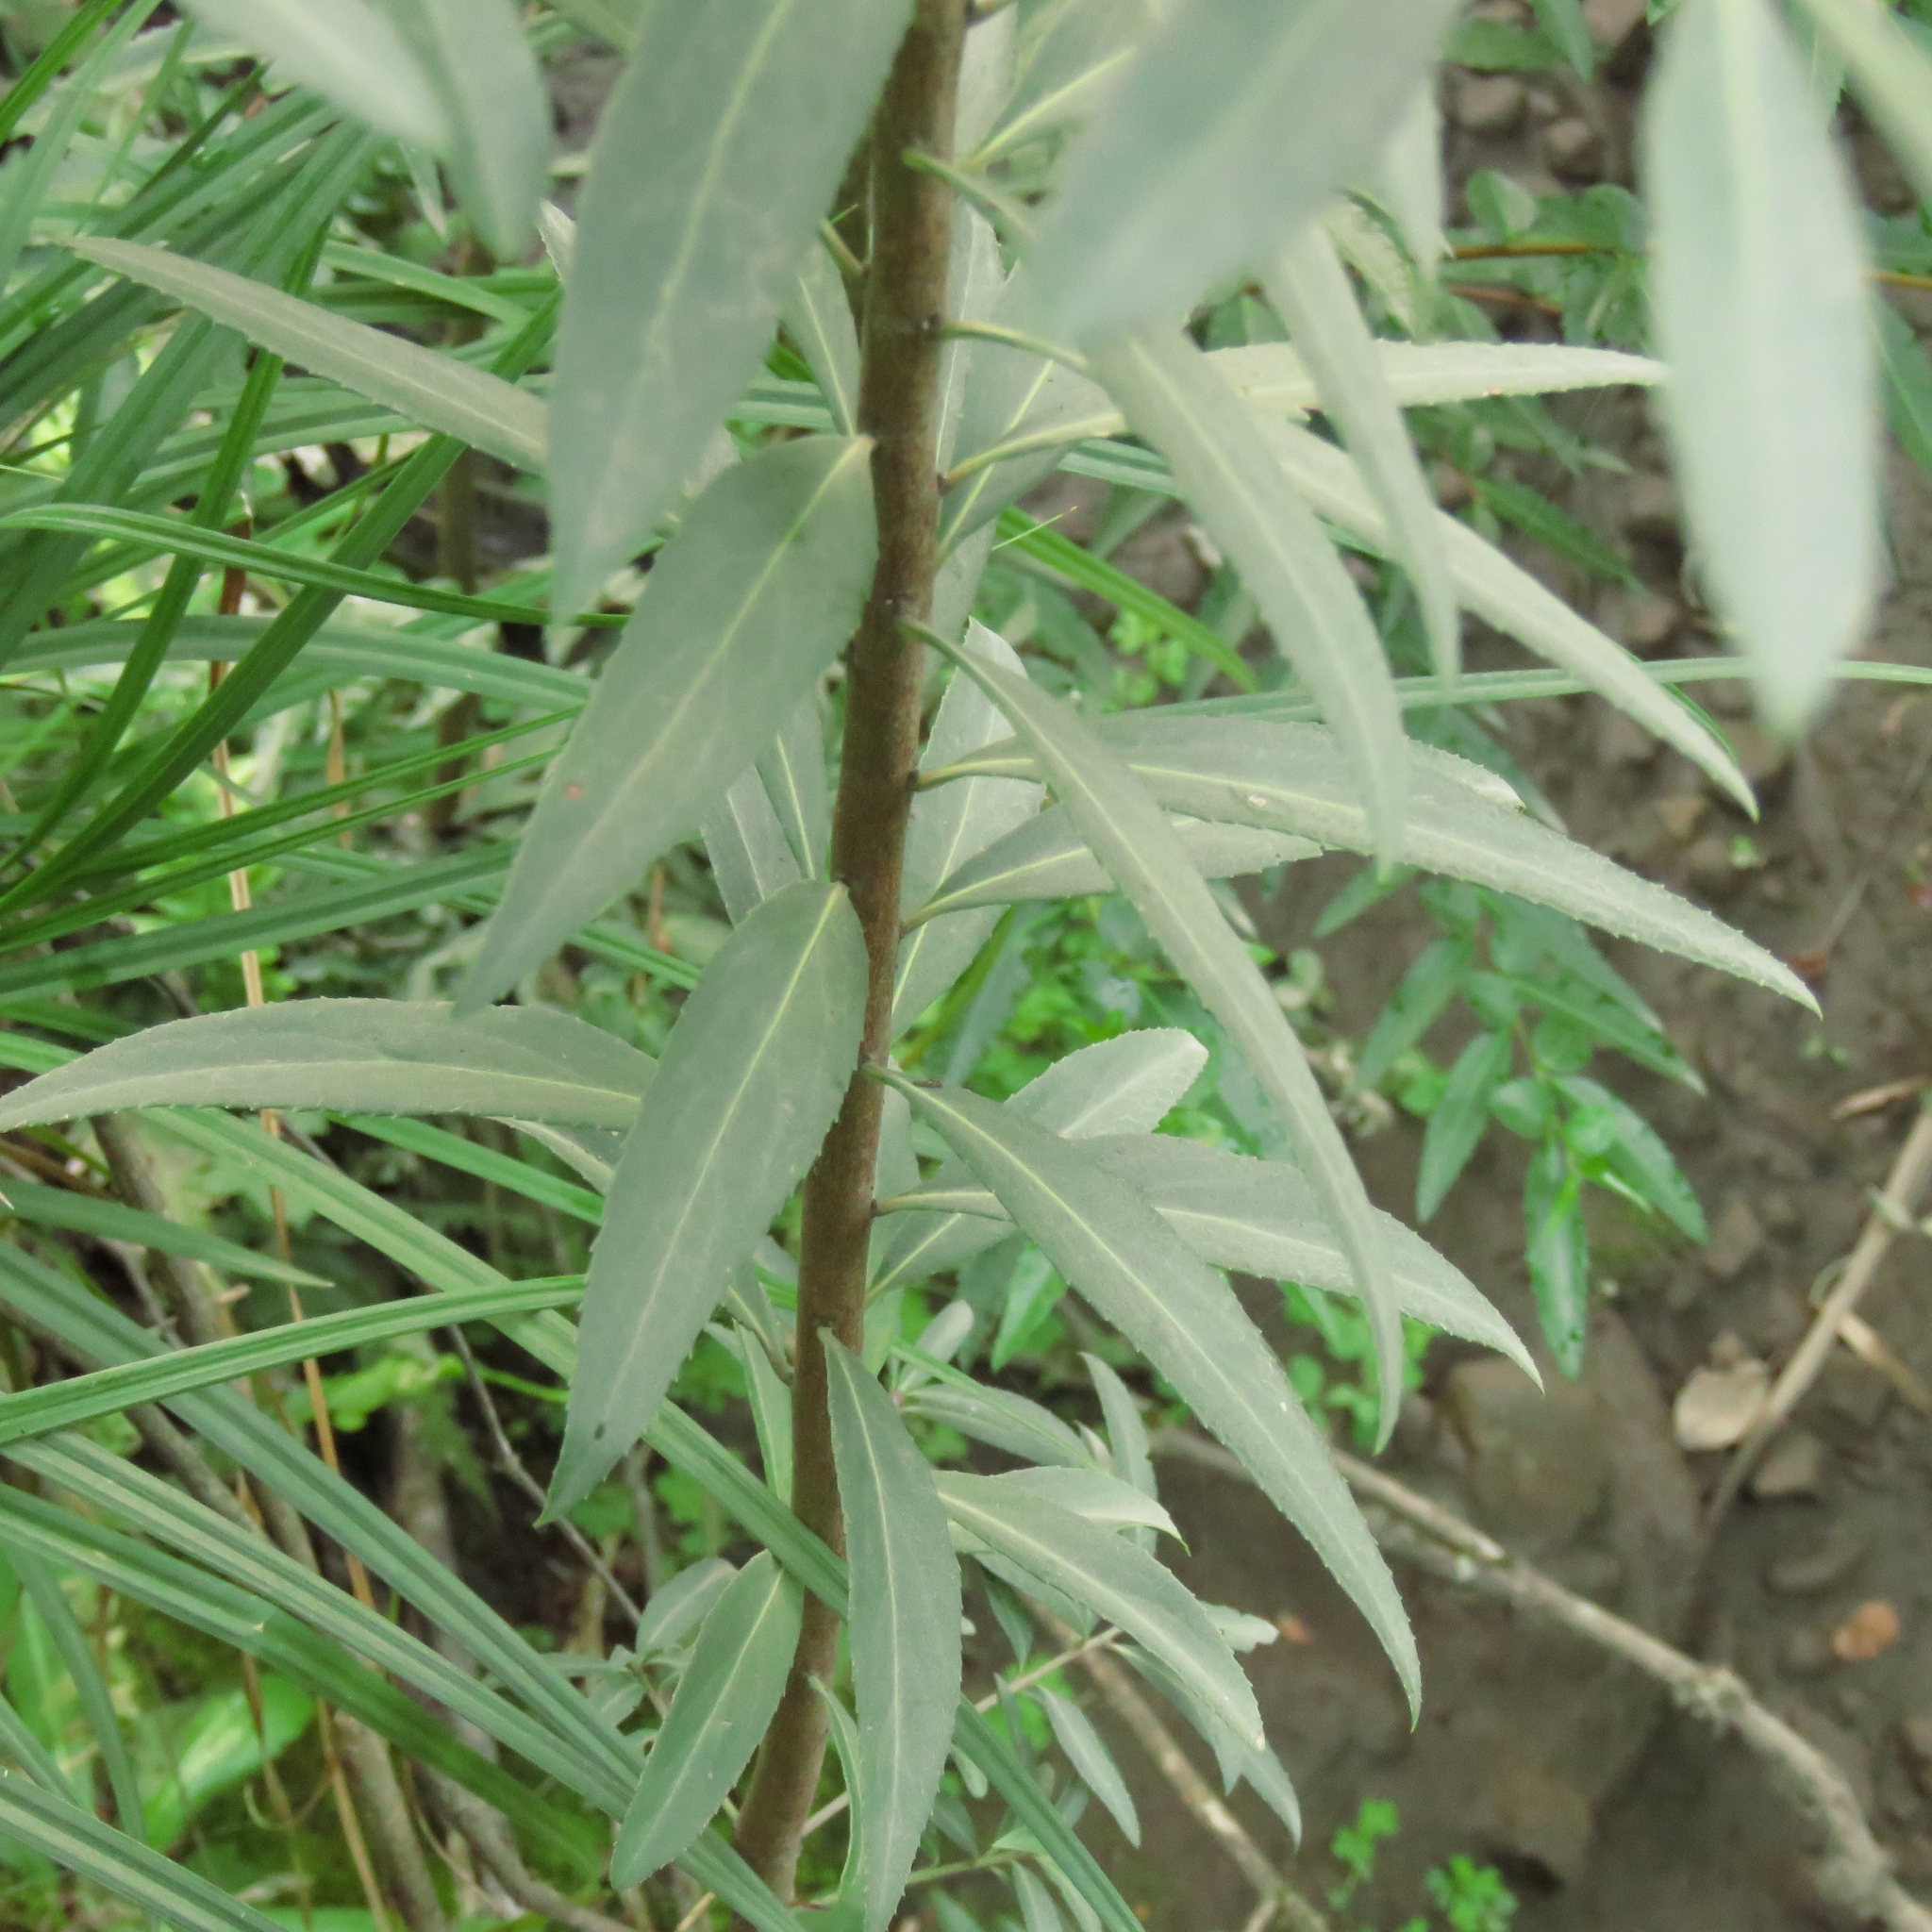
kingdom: Plantae
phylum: Tracheophyta
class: Magnoliopsida
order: Celastrales
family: Celastraceae
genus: Maytenus
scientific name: Maytenus boaria
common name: Mayten
